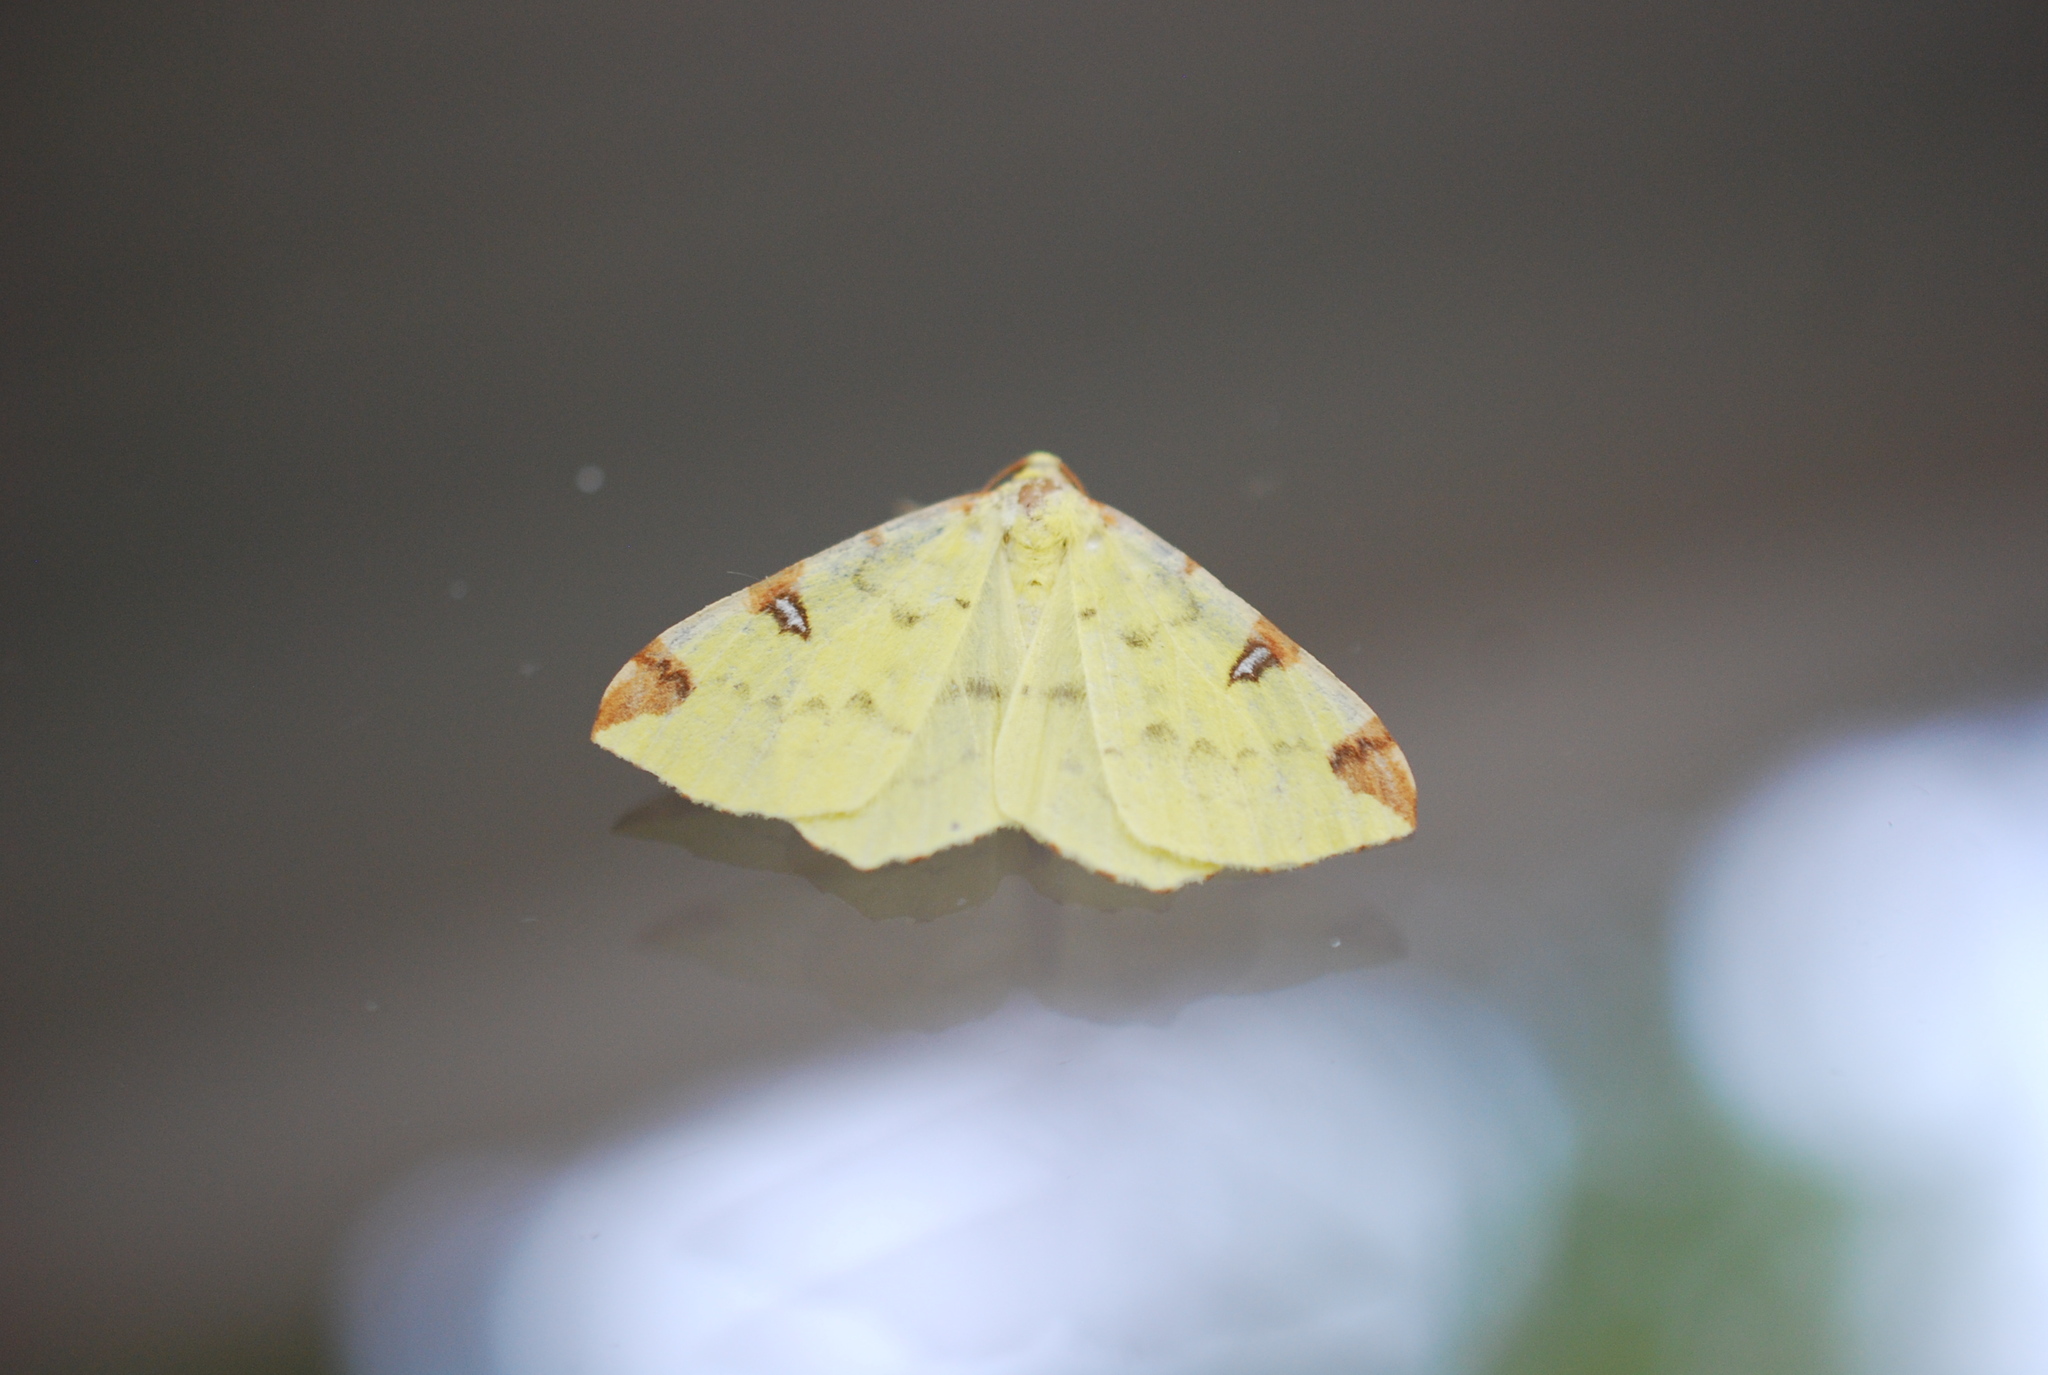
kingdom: Animalia
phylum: Arthropoda
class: Insecta
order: Lepidoptera
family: Geometridae
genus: Opisthograptis
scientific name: Opisthograptis luteolata
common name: Brimstone moth
